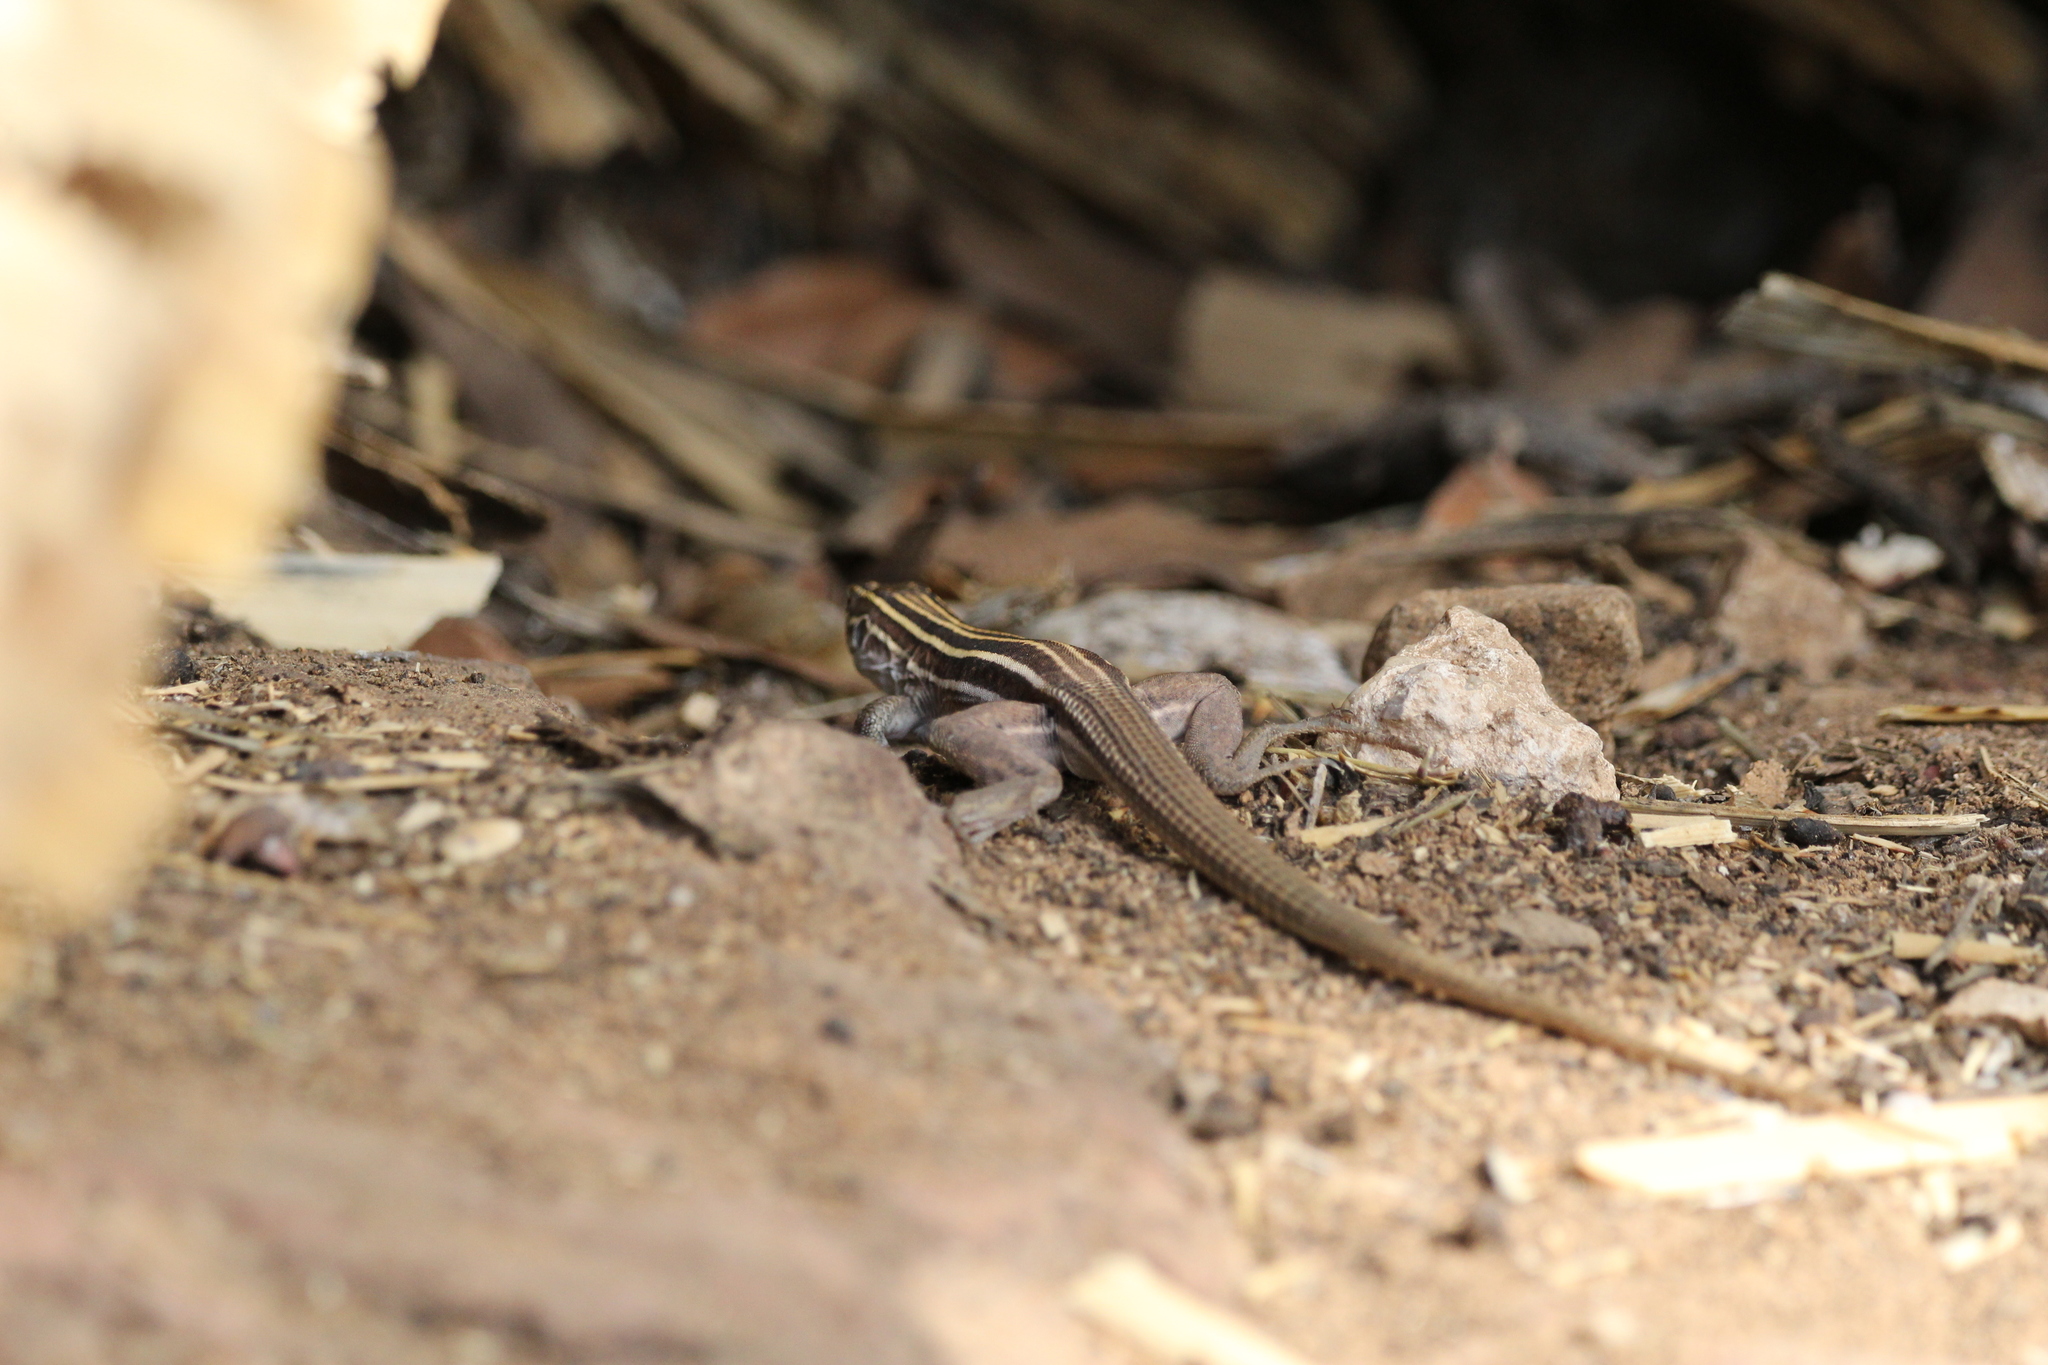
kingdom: Animalia
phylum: Chordata
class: Squamata
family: Teiidae
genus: Aspidoscelis
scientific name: Aspidoscelis sonorae
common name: Sonoran spotted whiptail
